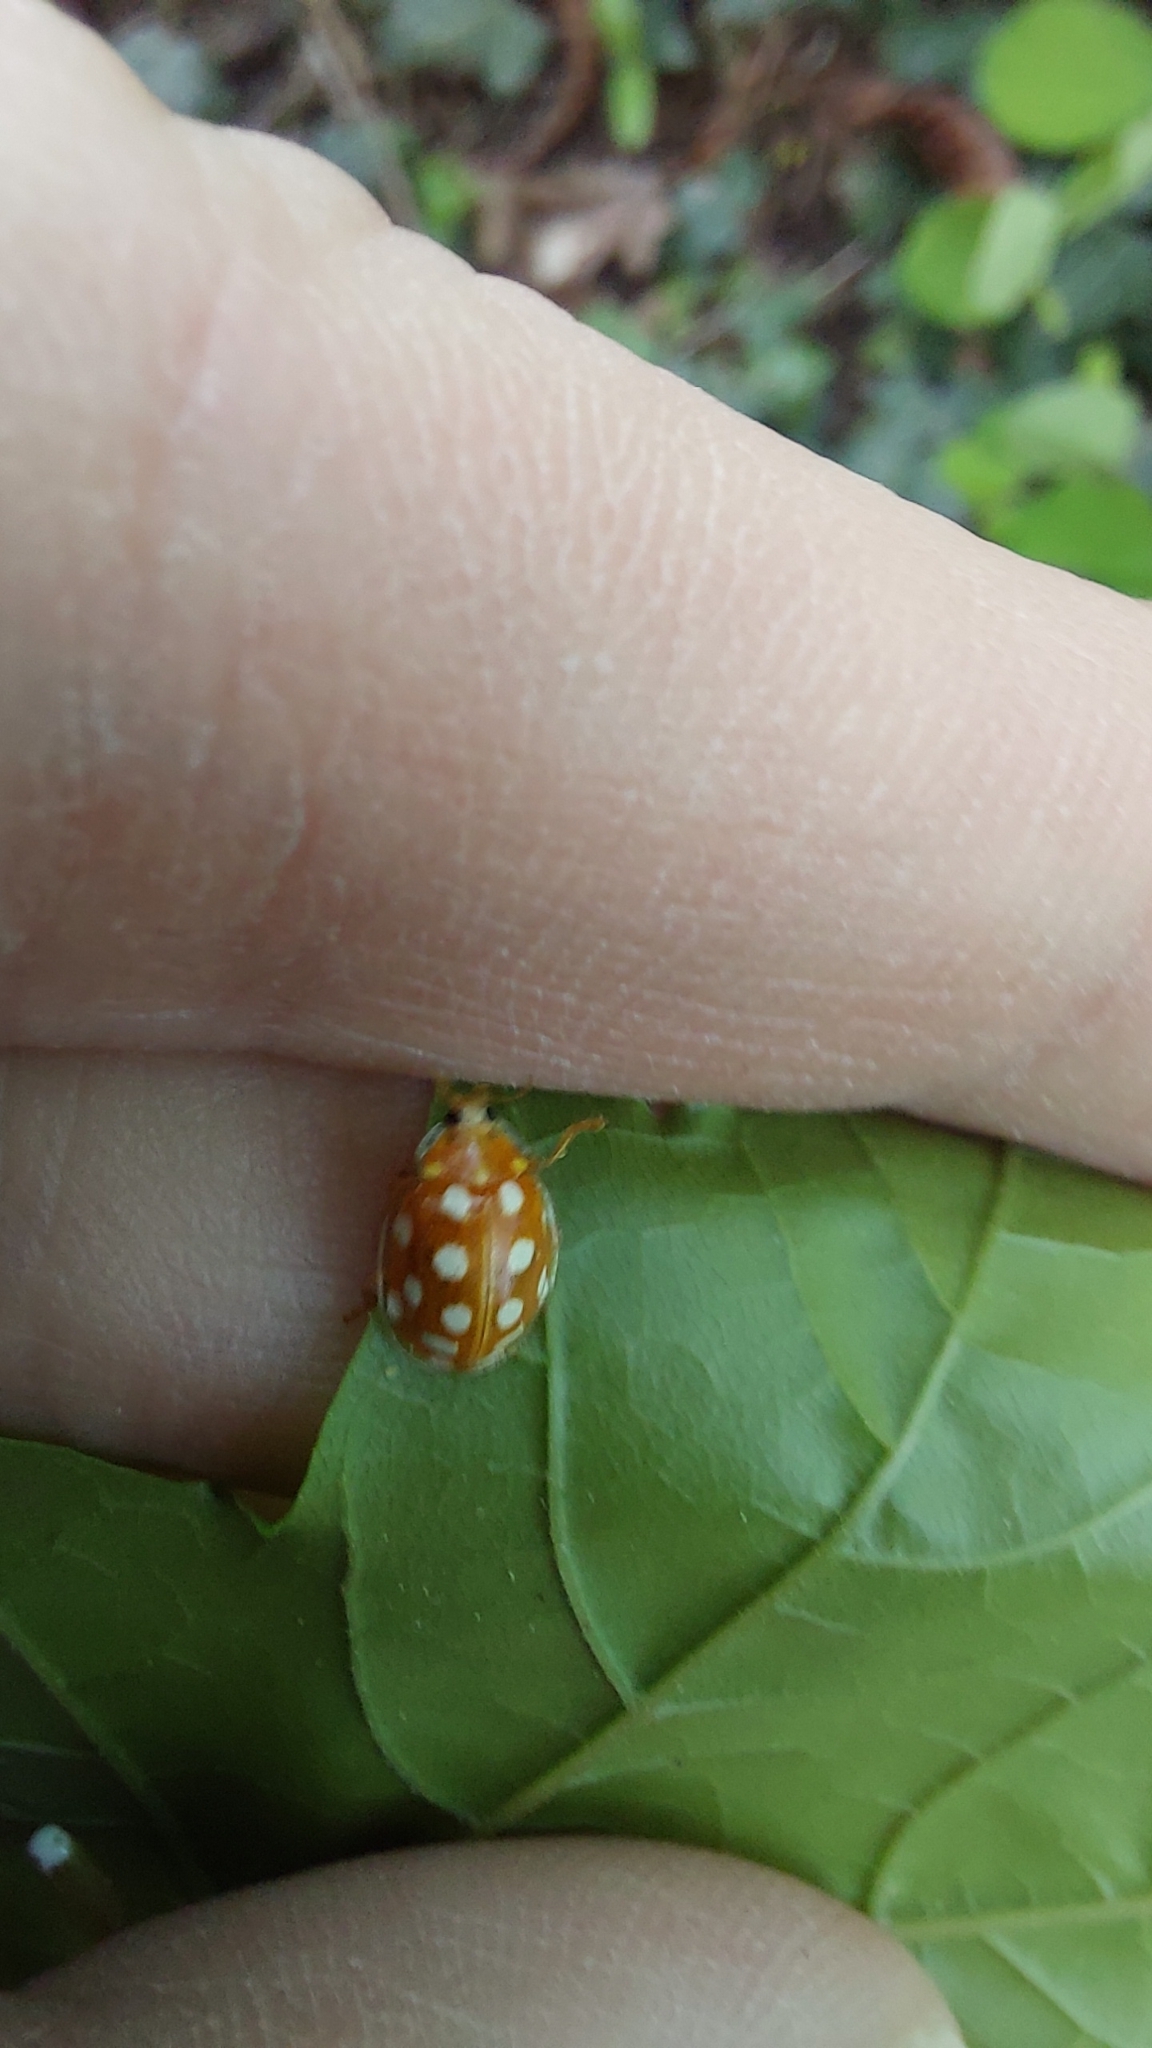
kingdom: Animalia
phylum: Arthropoda
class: Insecta
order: Coleoptera
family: Coccinellidae
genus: Halyzia
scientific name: Halyzia sedecimguttata
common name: Orange ladybird
